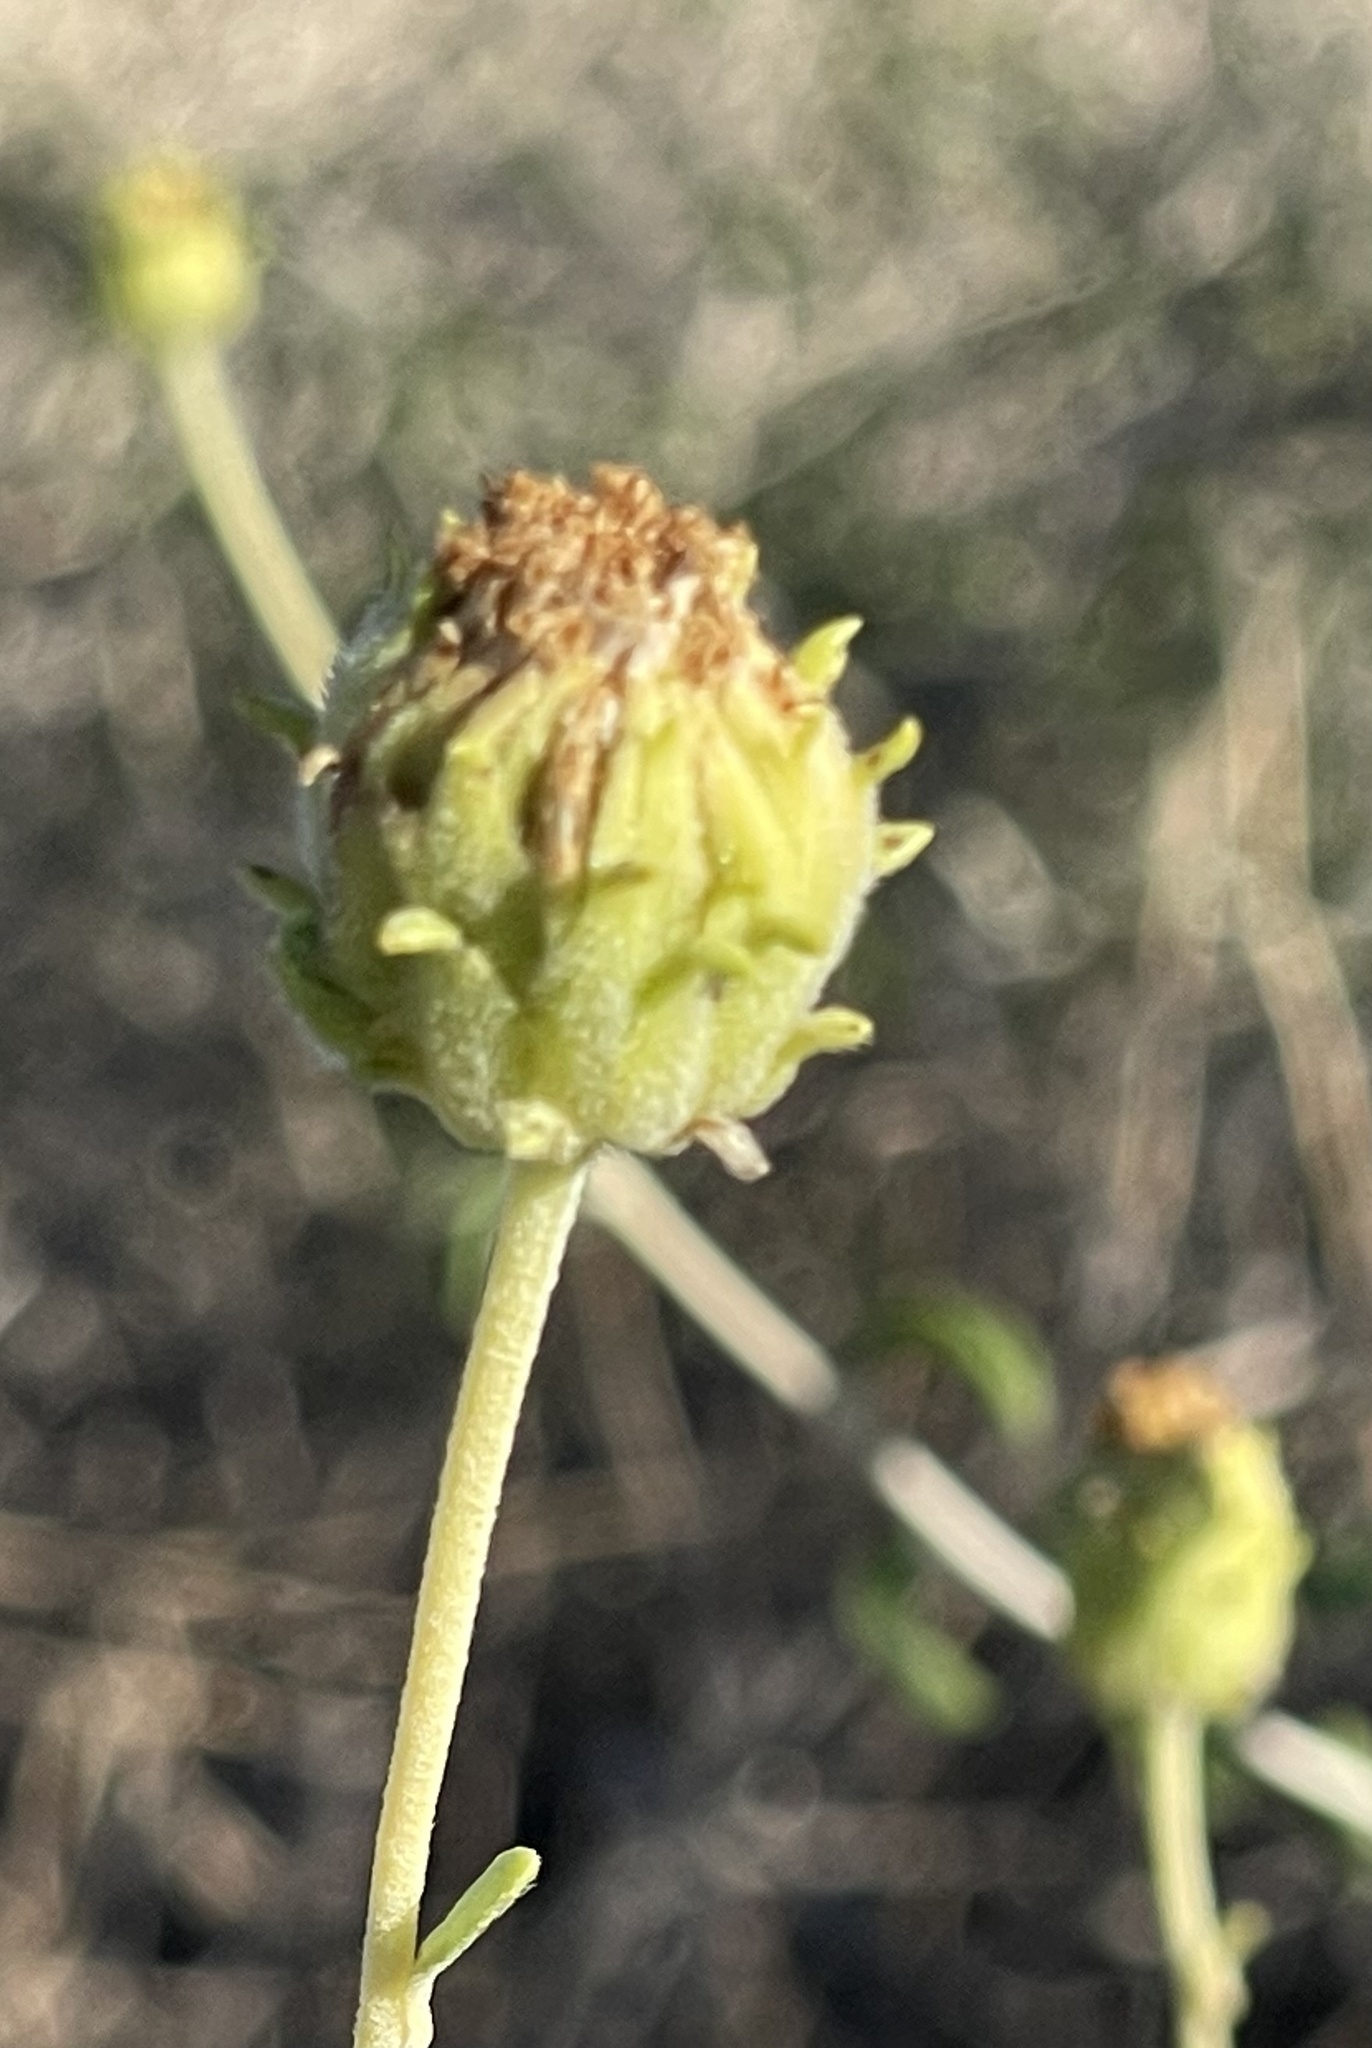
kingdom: Plantae
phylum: Tracheophyta
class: Magnoliopsida
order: Asterales
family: Asteraceae
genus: Encelia
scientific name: Encelia frutescens
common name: Bush encelia
